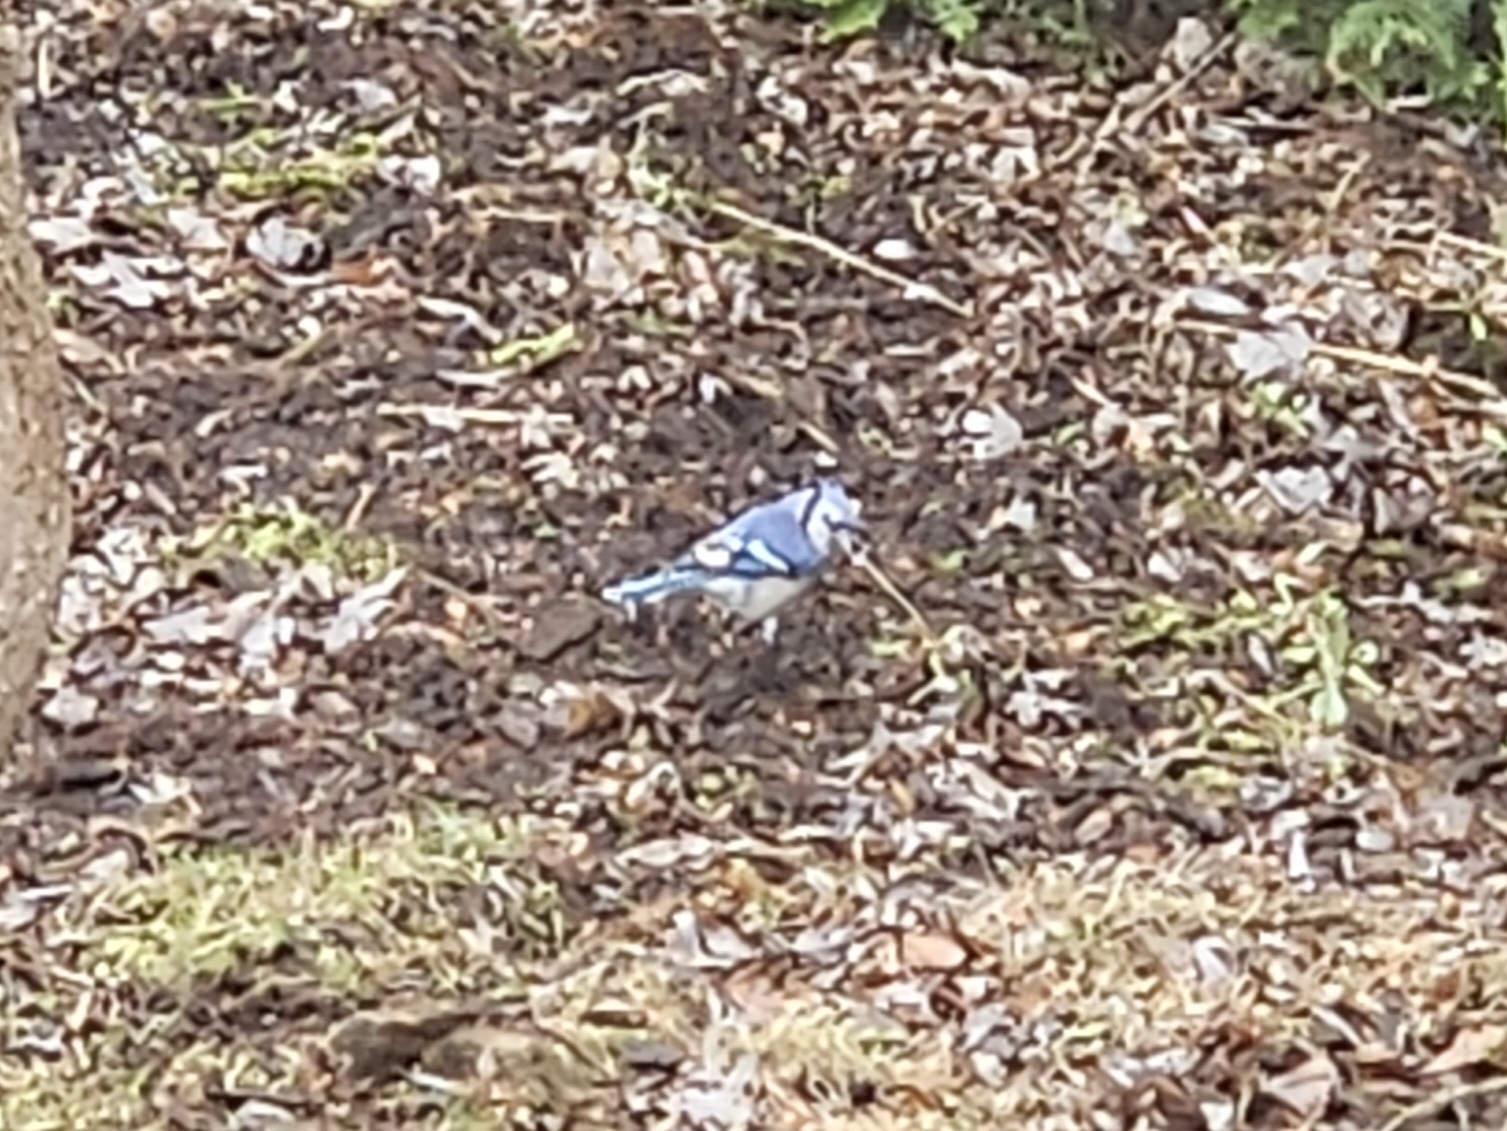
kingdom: Animalia
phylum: Chordata
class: Aves
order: Passeriformes
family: Corvidae
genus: Cyanocitta
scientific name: Cyanocitta cristata
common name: Blue jay
